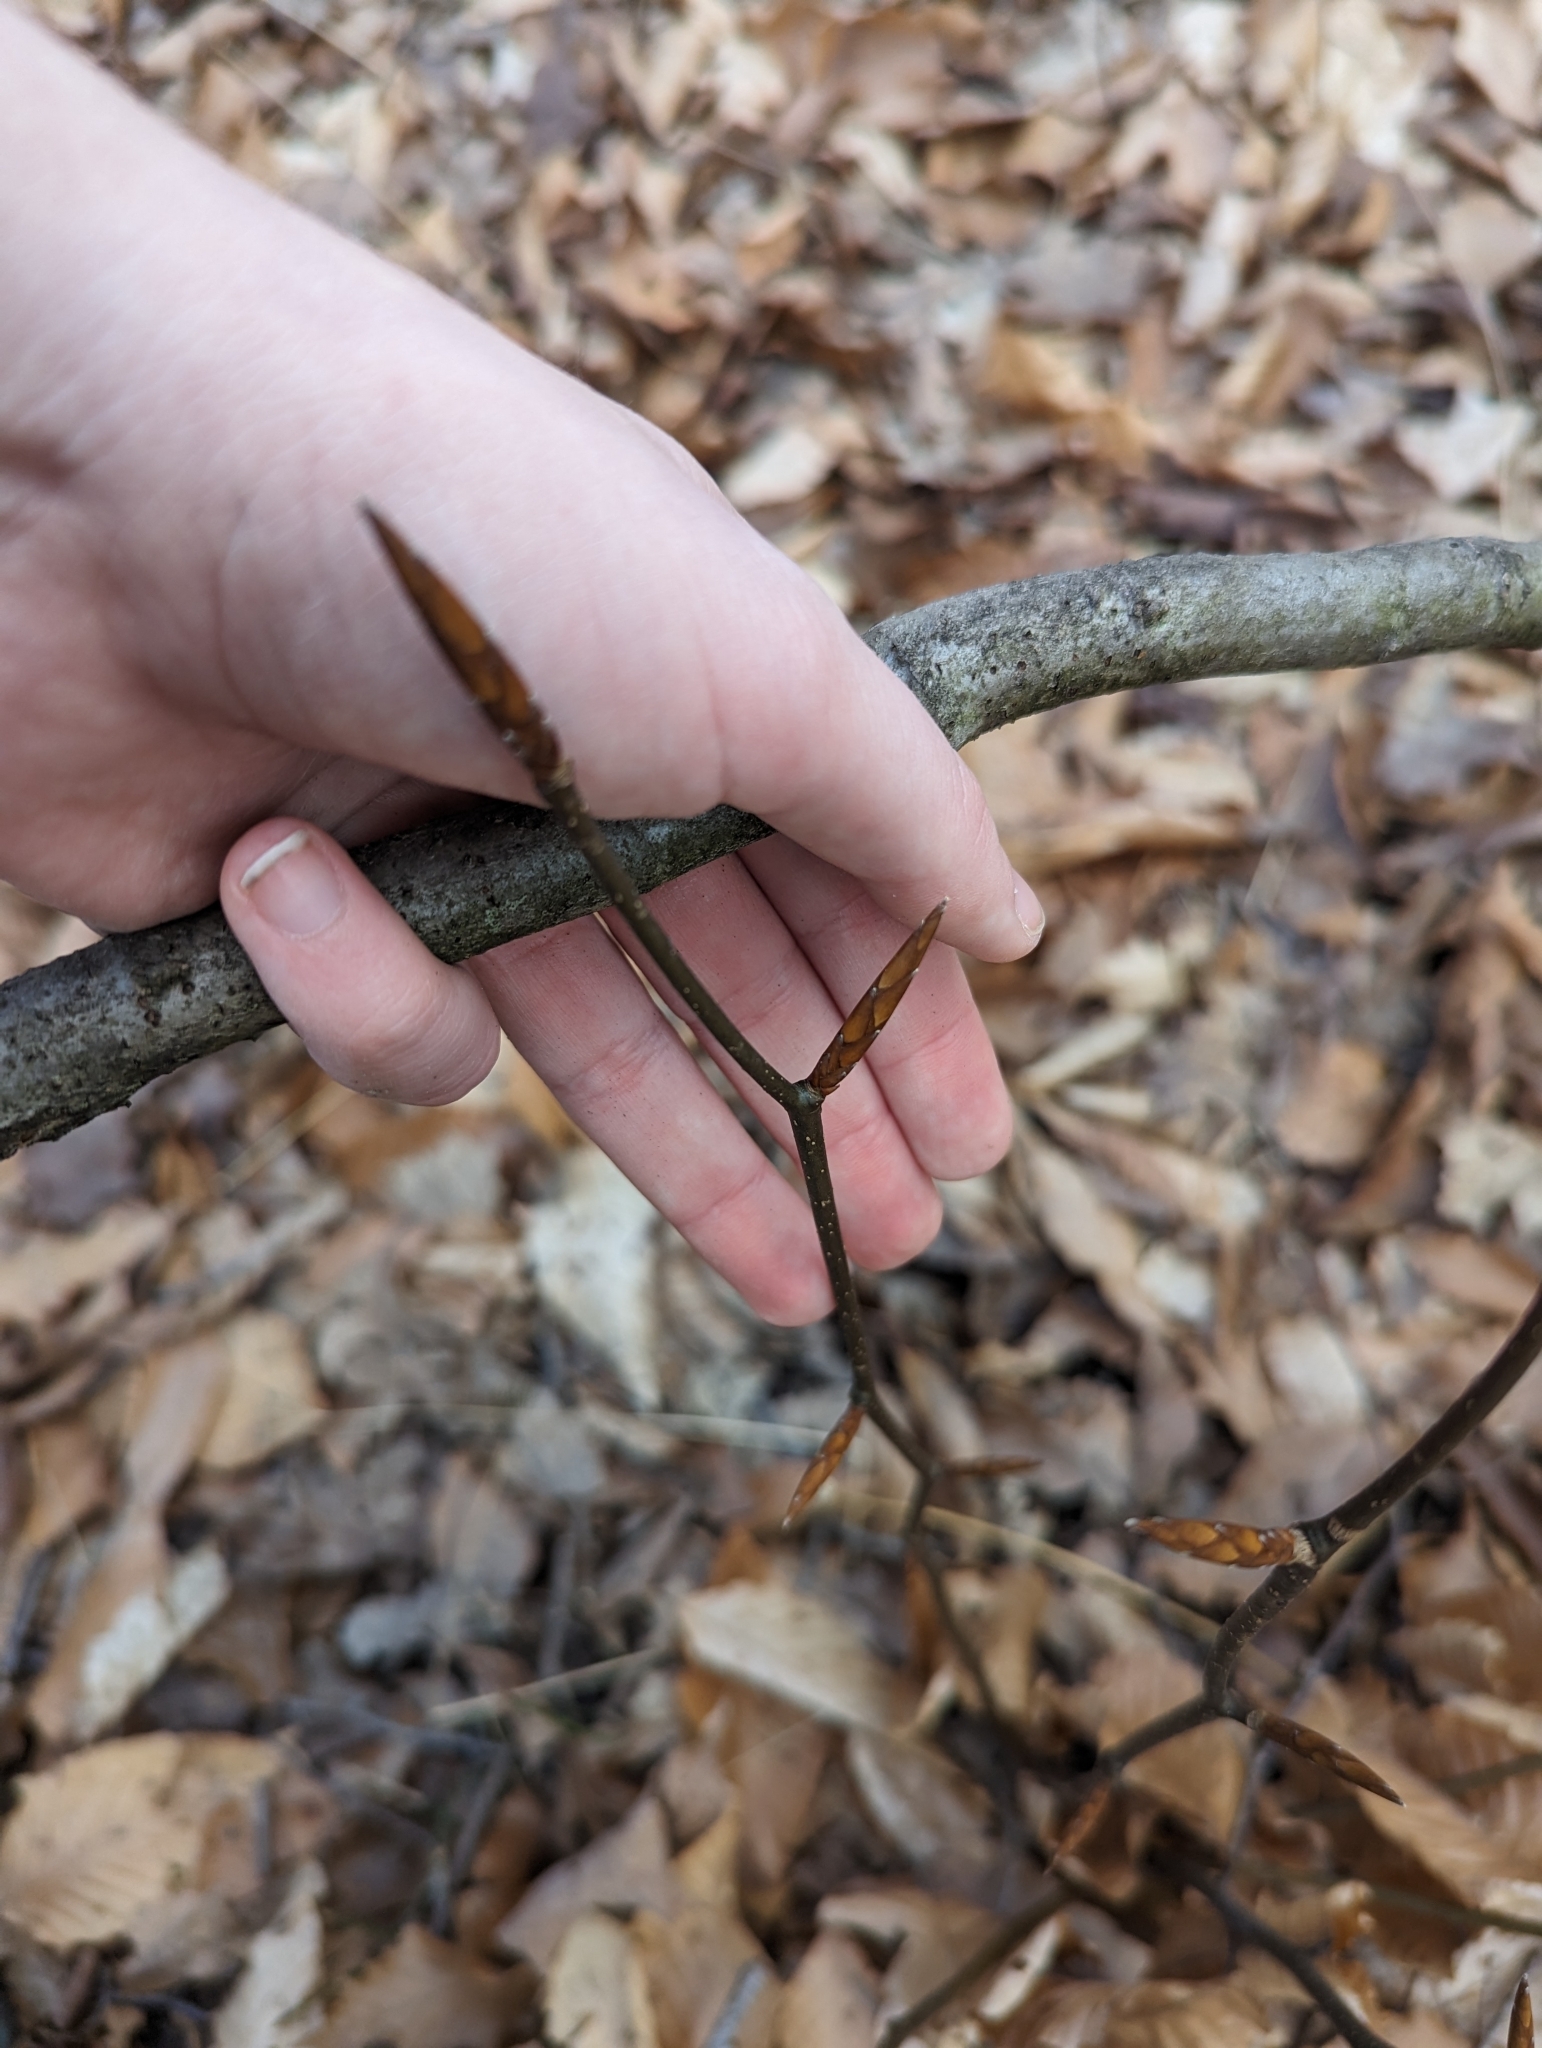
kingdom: Plantae
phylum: Tracheophyta
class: Magnoliopsida
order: Fagales
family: Fagaceae
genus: Fagus
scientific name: Fagus grandifolia
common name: American beech
